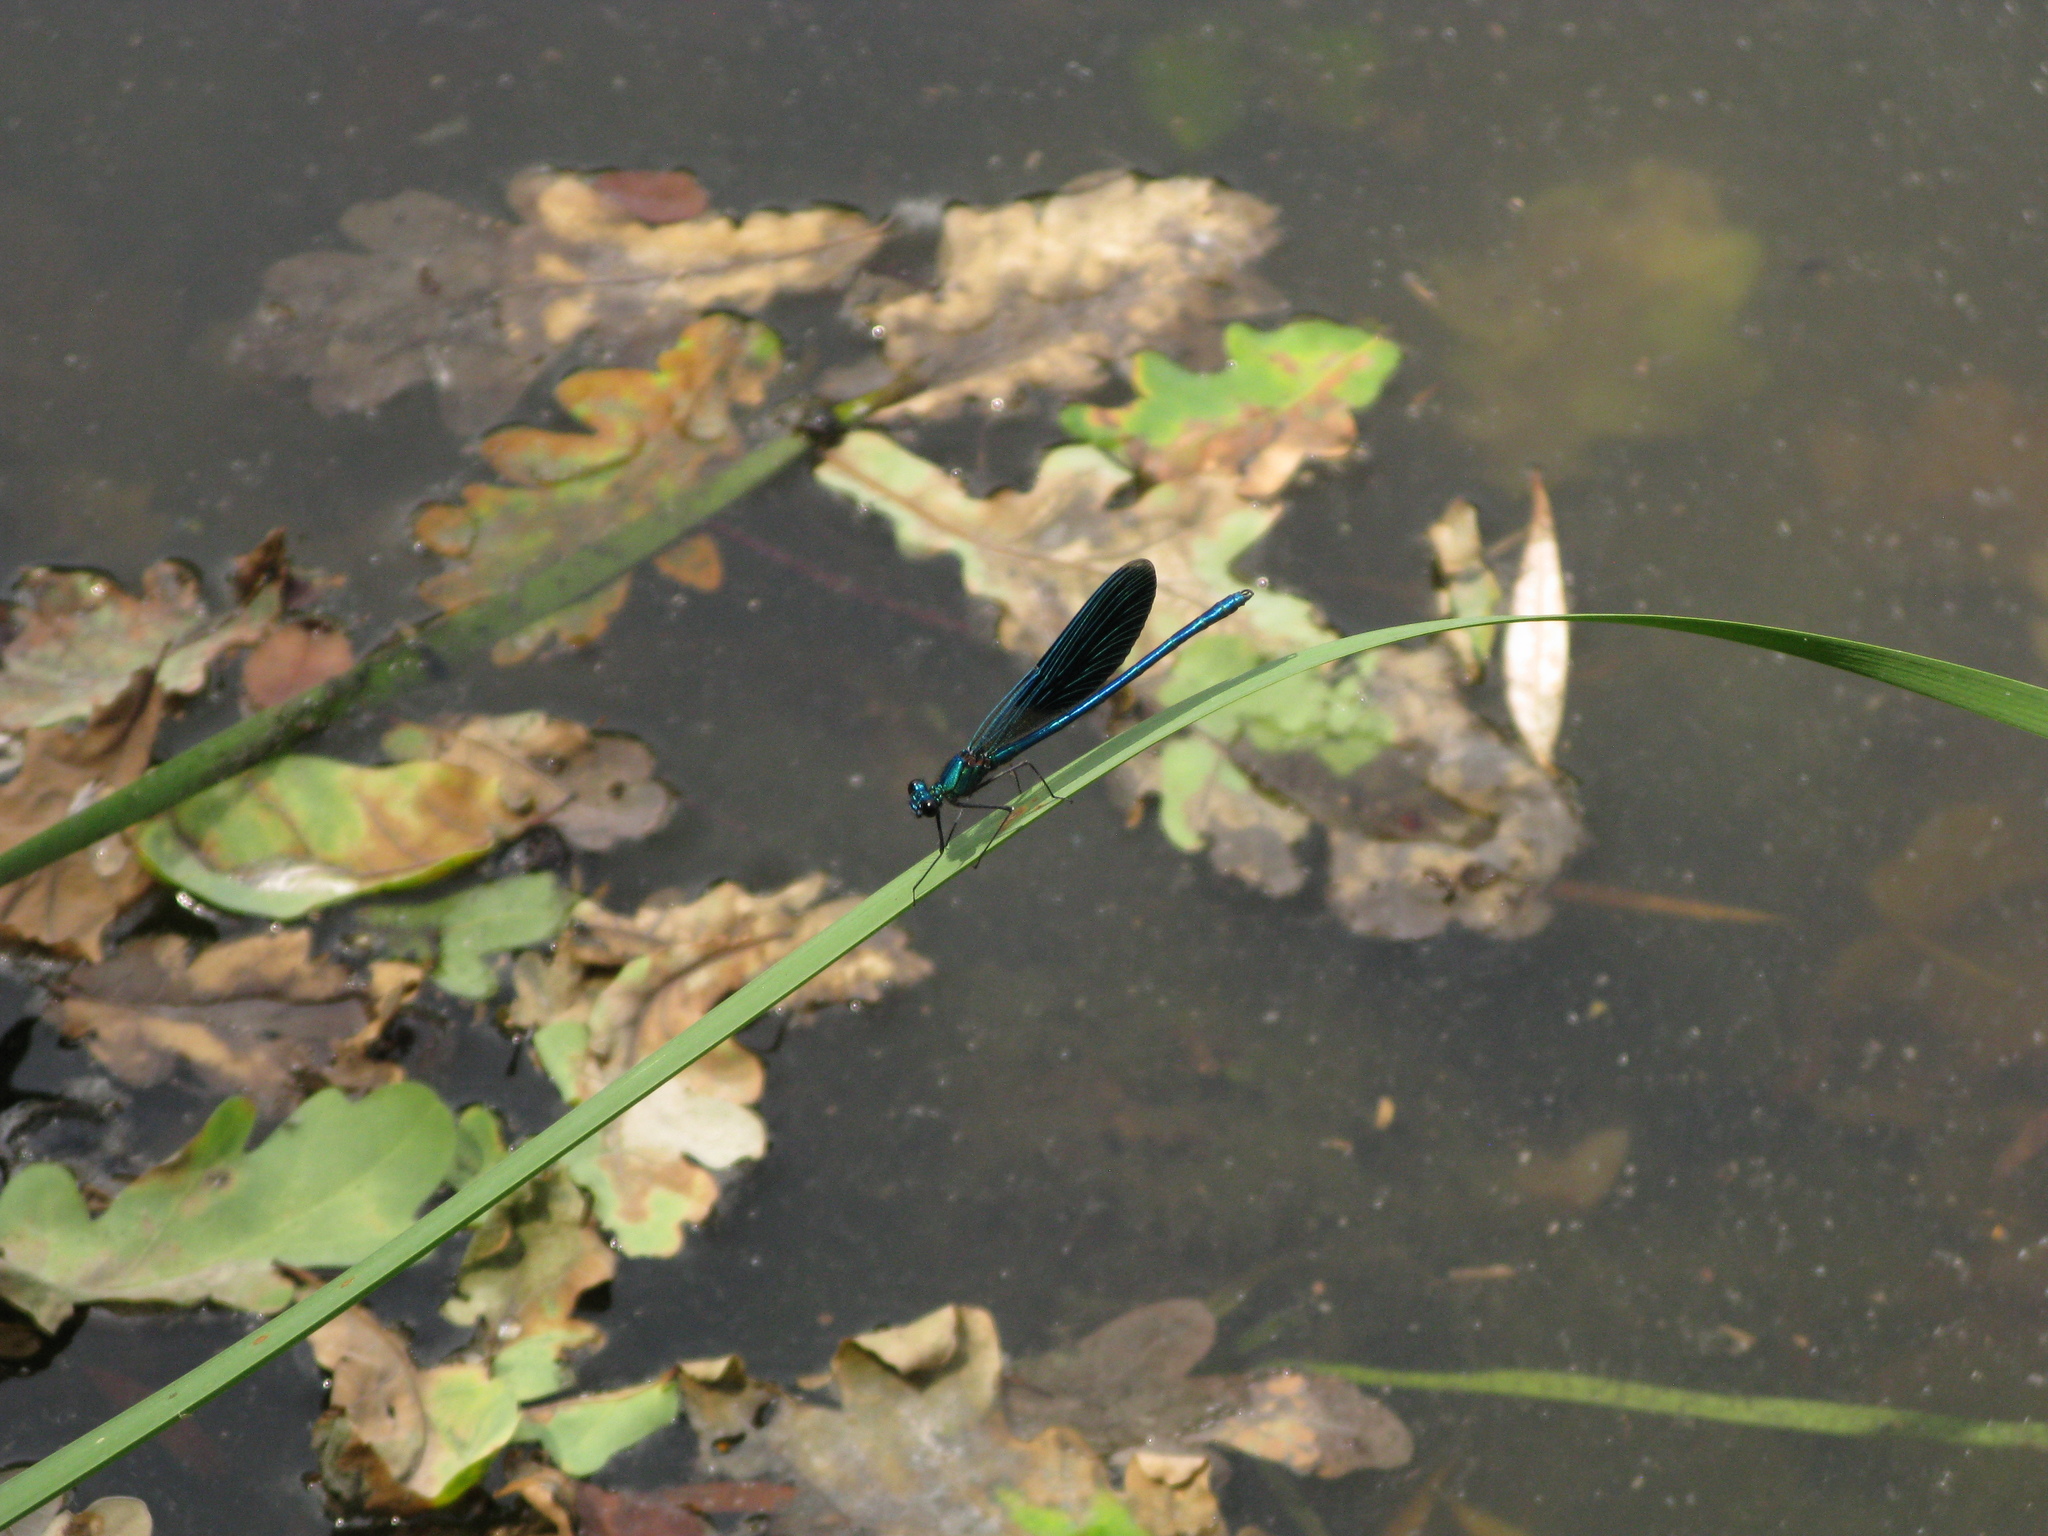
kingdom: Animalia
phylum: Arthropoda
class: Insecta
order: Odonata
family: Calopterygidae
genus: Calopteryx
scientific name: Calopteryx splendens
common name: Banded demoiselle
